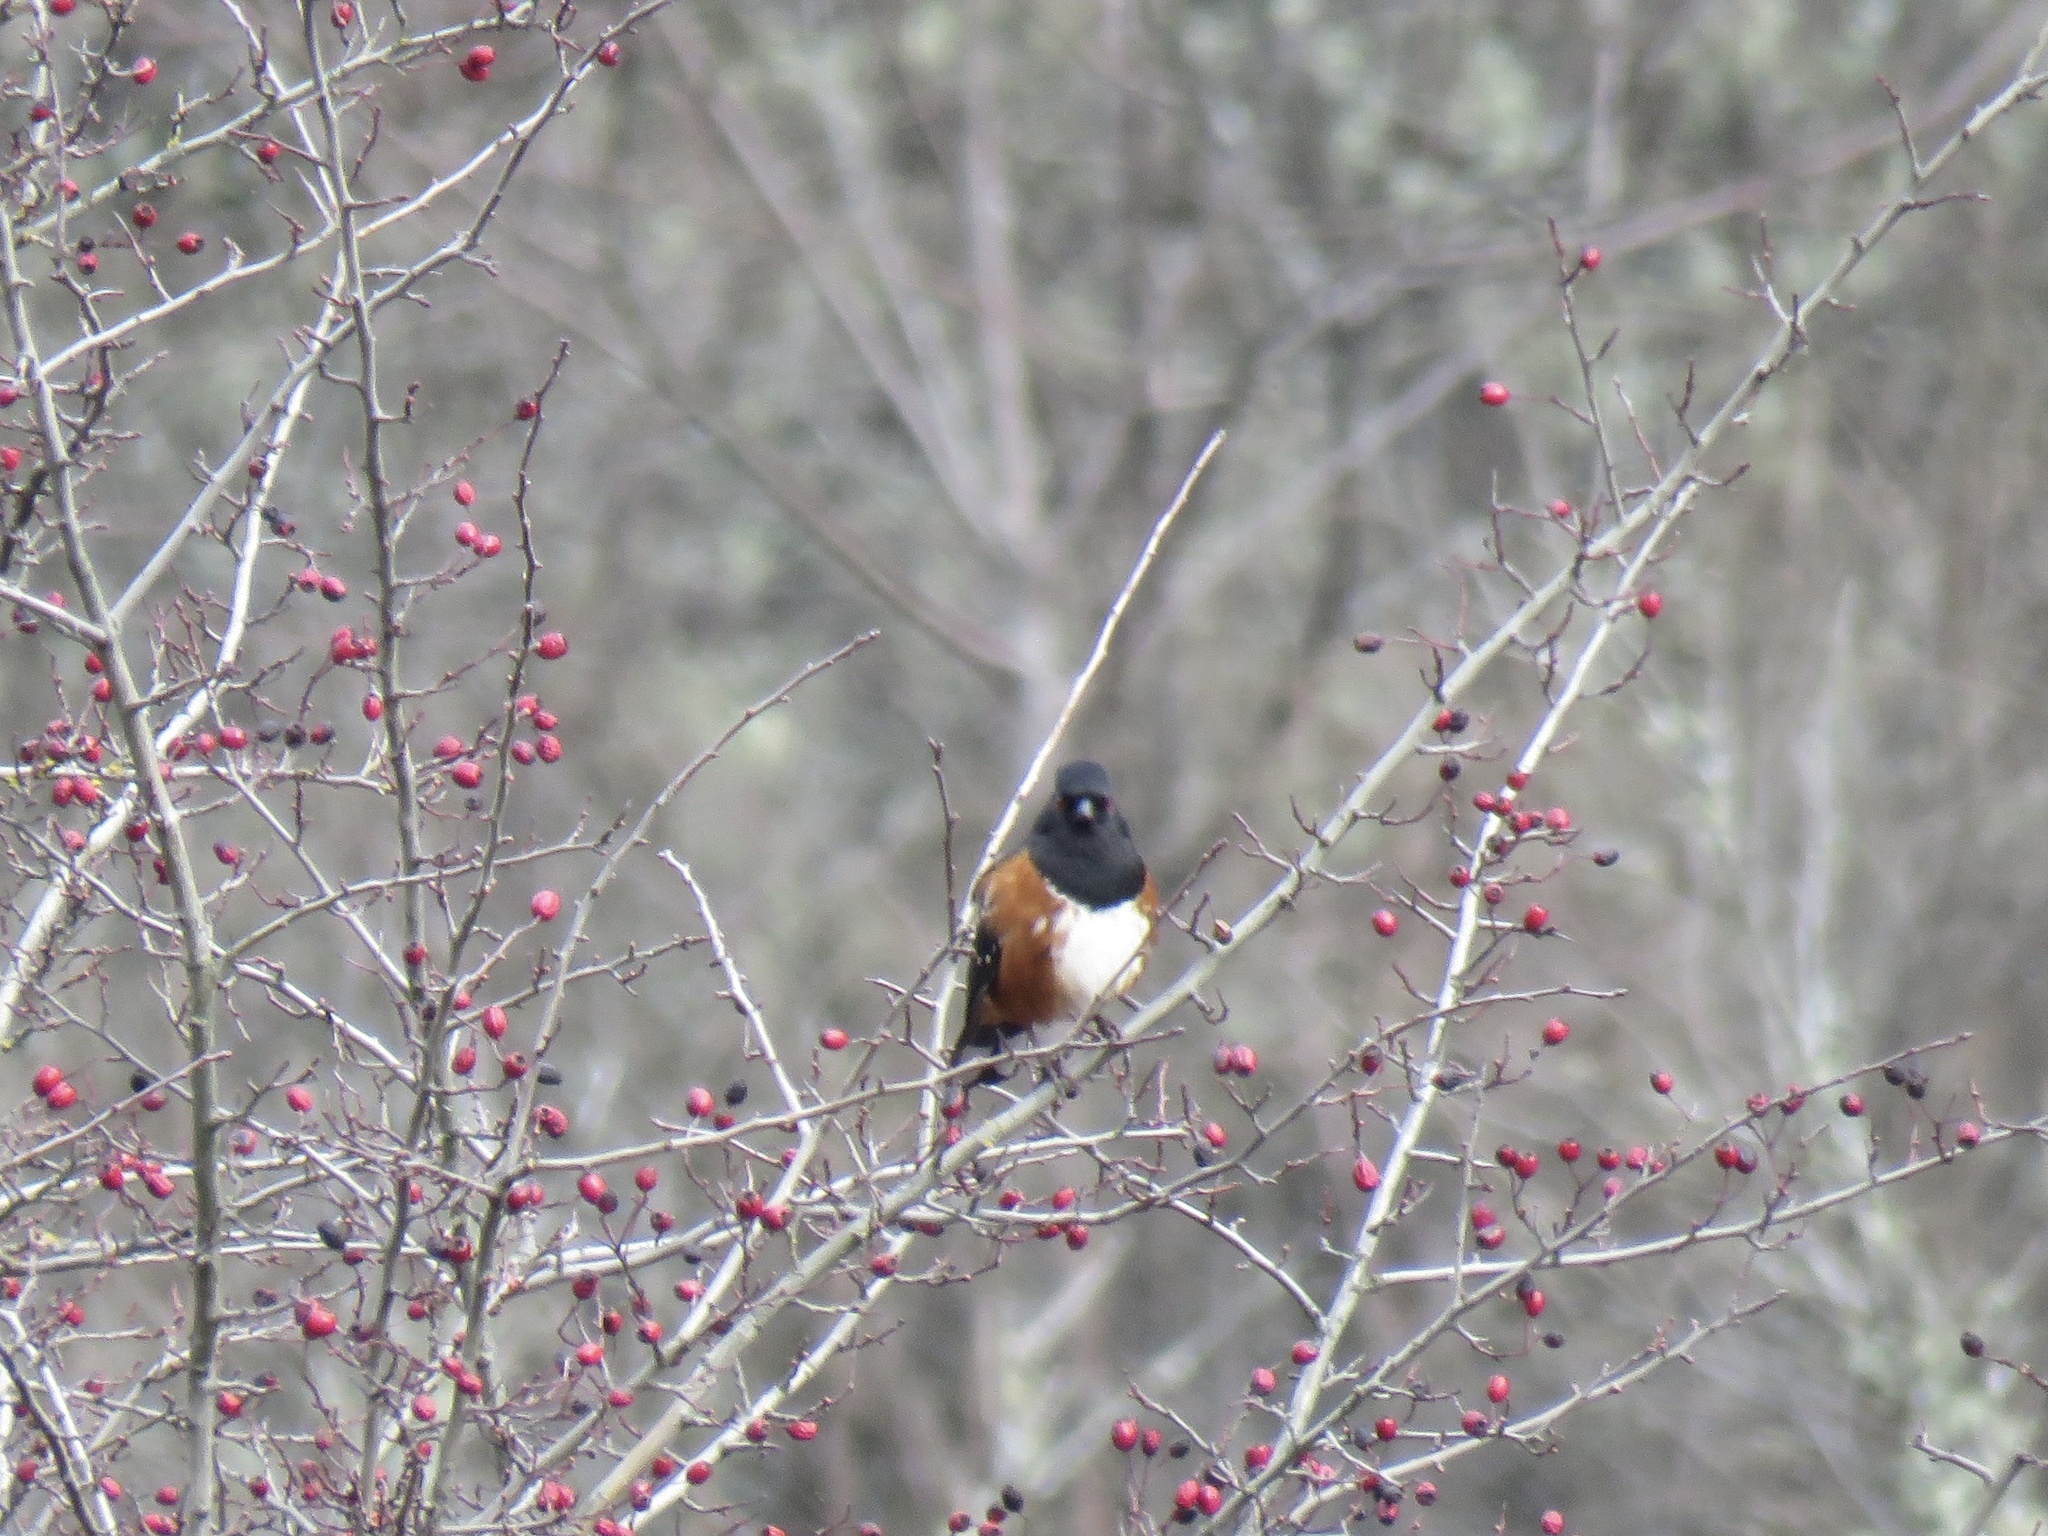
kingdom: Animalia
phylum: Chordata
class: Aves
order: Passeriformes
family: Passerellidae
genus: Pipilo
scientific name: Pipilo maculatus
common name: Spotted towhee
